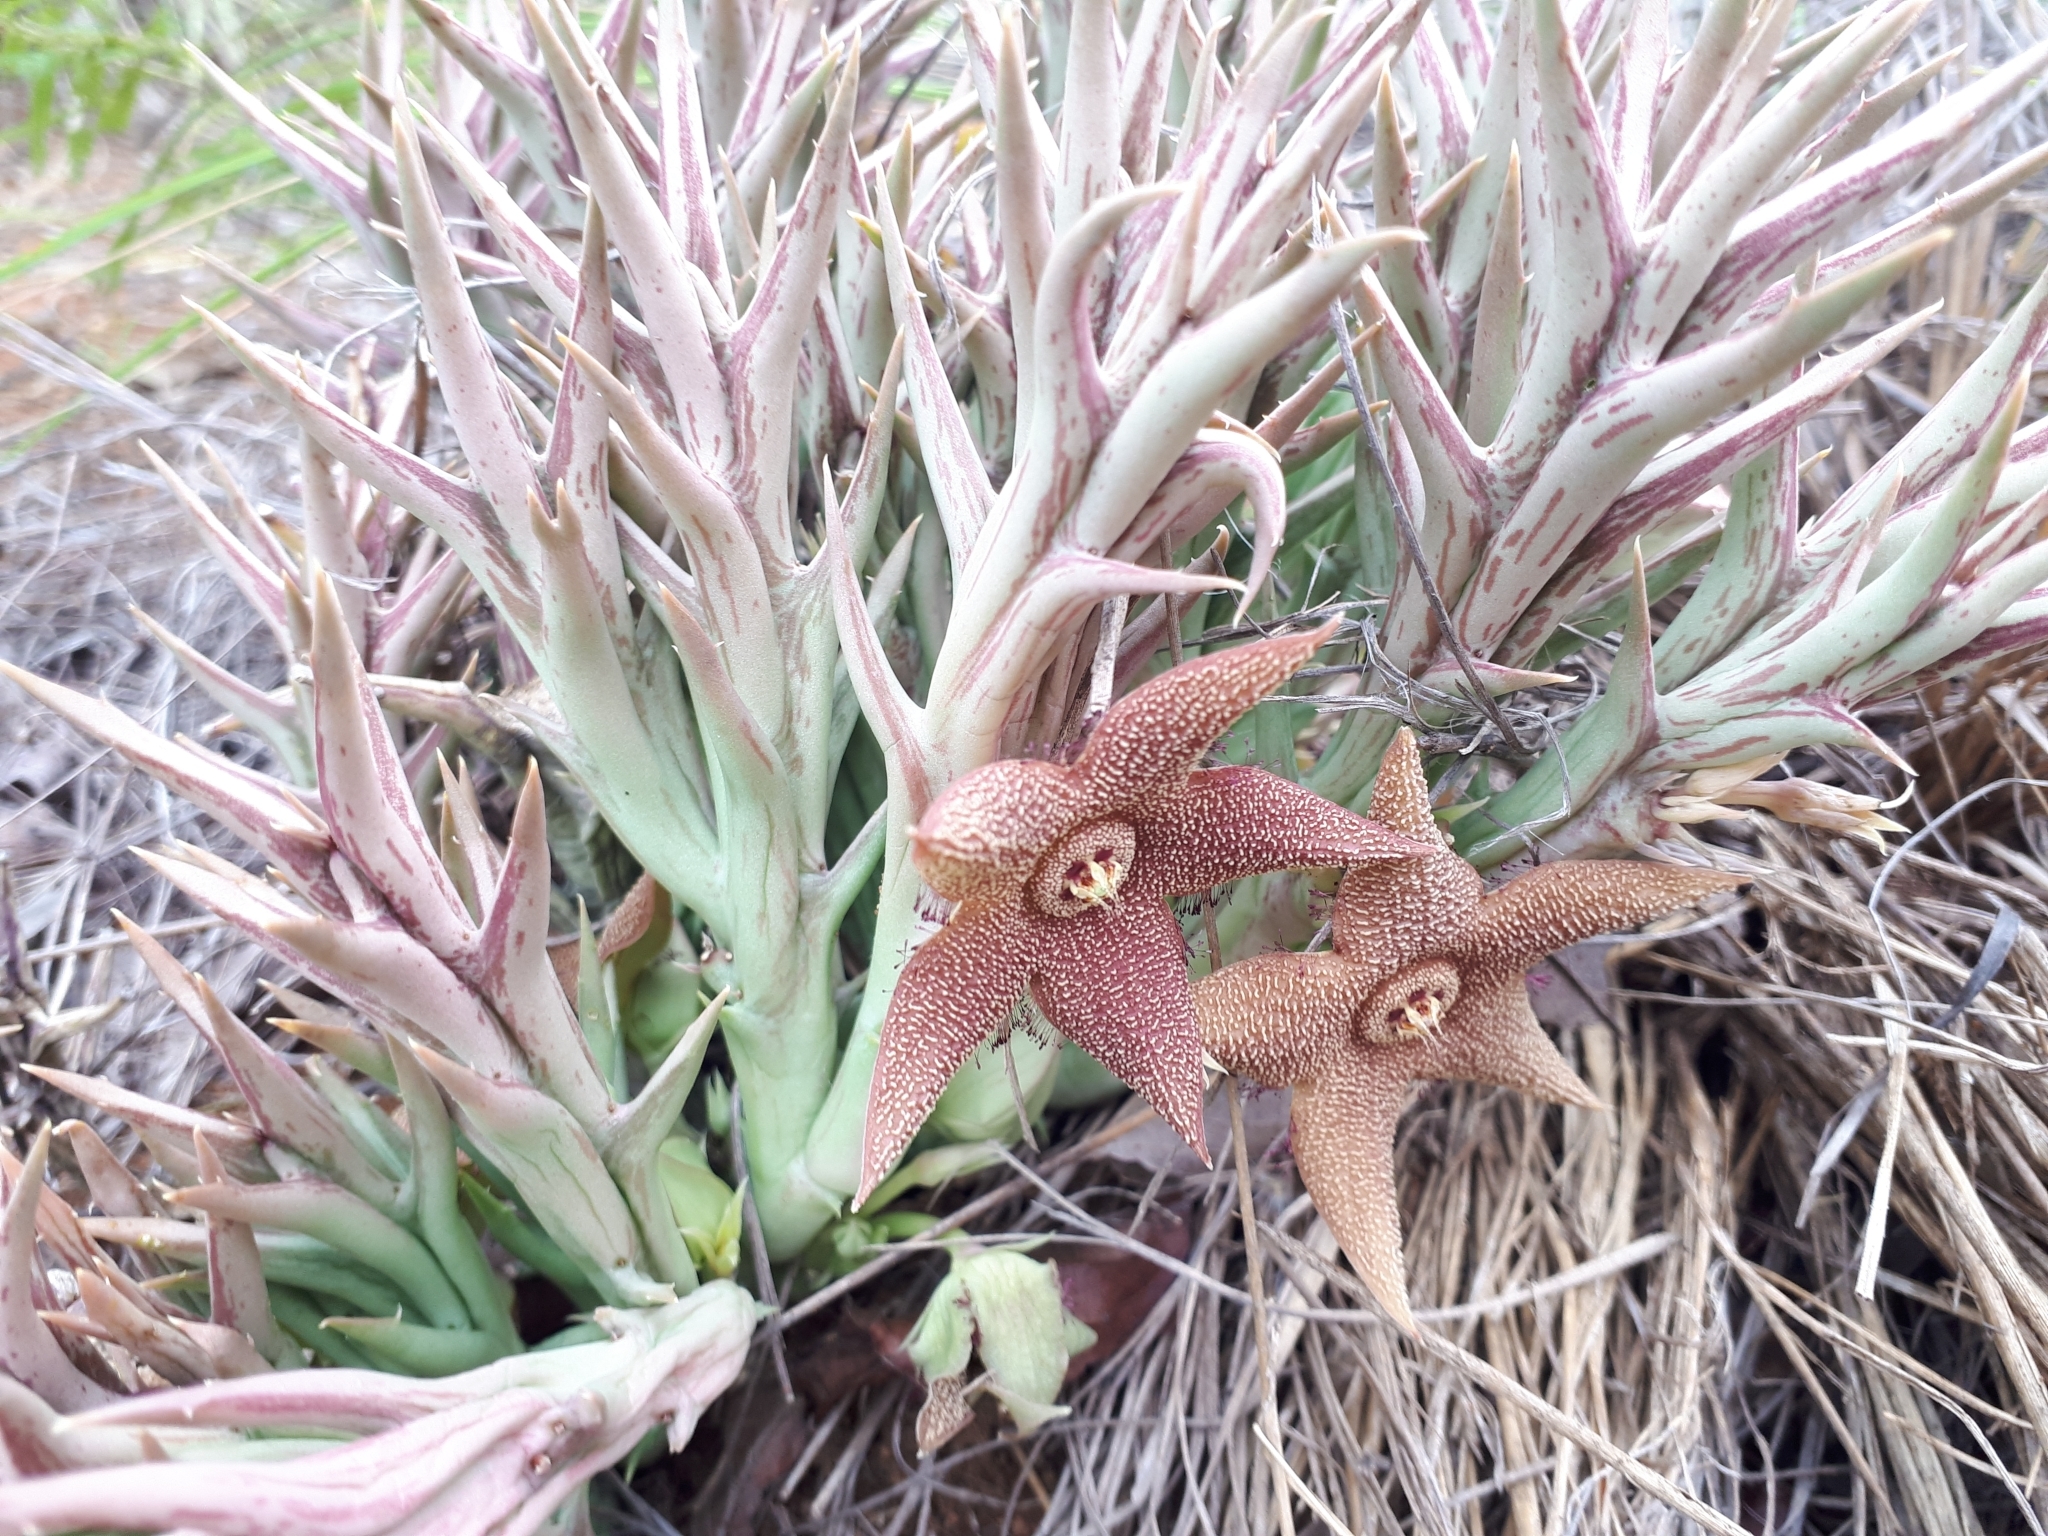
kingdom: Plantae
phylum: Tracheophyta
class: Magnoliopsida
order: Gentianales
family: Apocynaceae
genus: Ceropegia
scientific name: Ceropegia tapscottii
